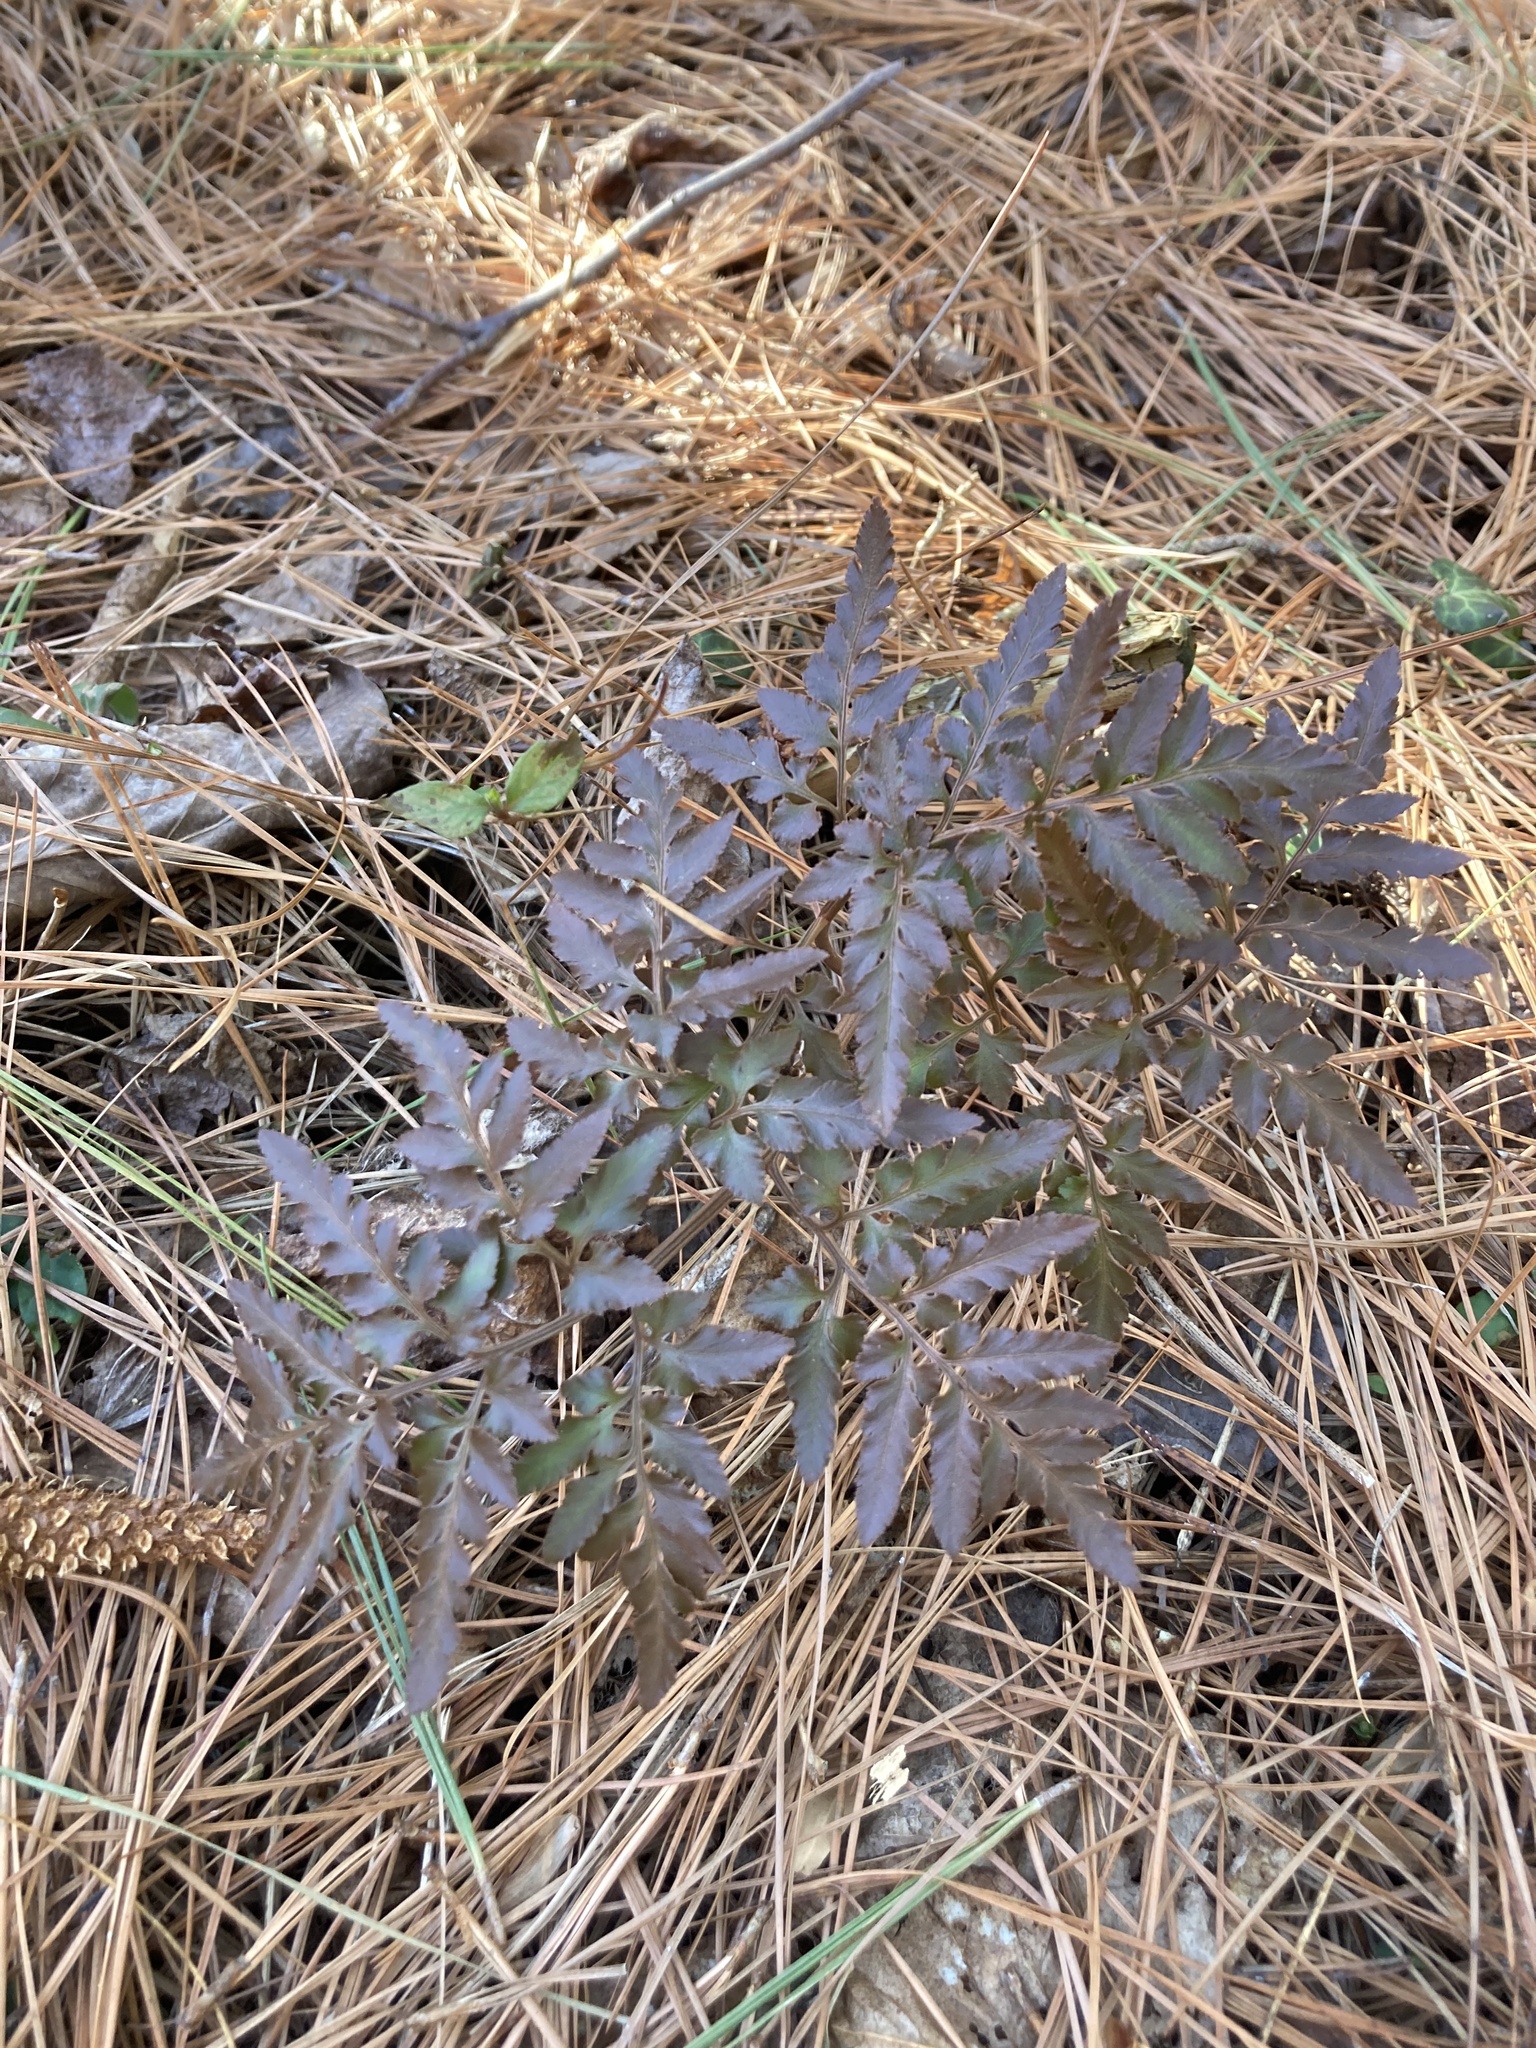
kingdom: Plantae
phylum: Tracheophyta
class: Polypodiopsida
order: Ophioglossales
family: Ophioglossaceae
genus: Sceptridium
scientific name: Sceptridium dissectum
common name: Cut-leaved grapefern
